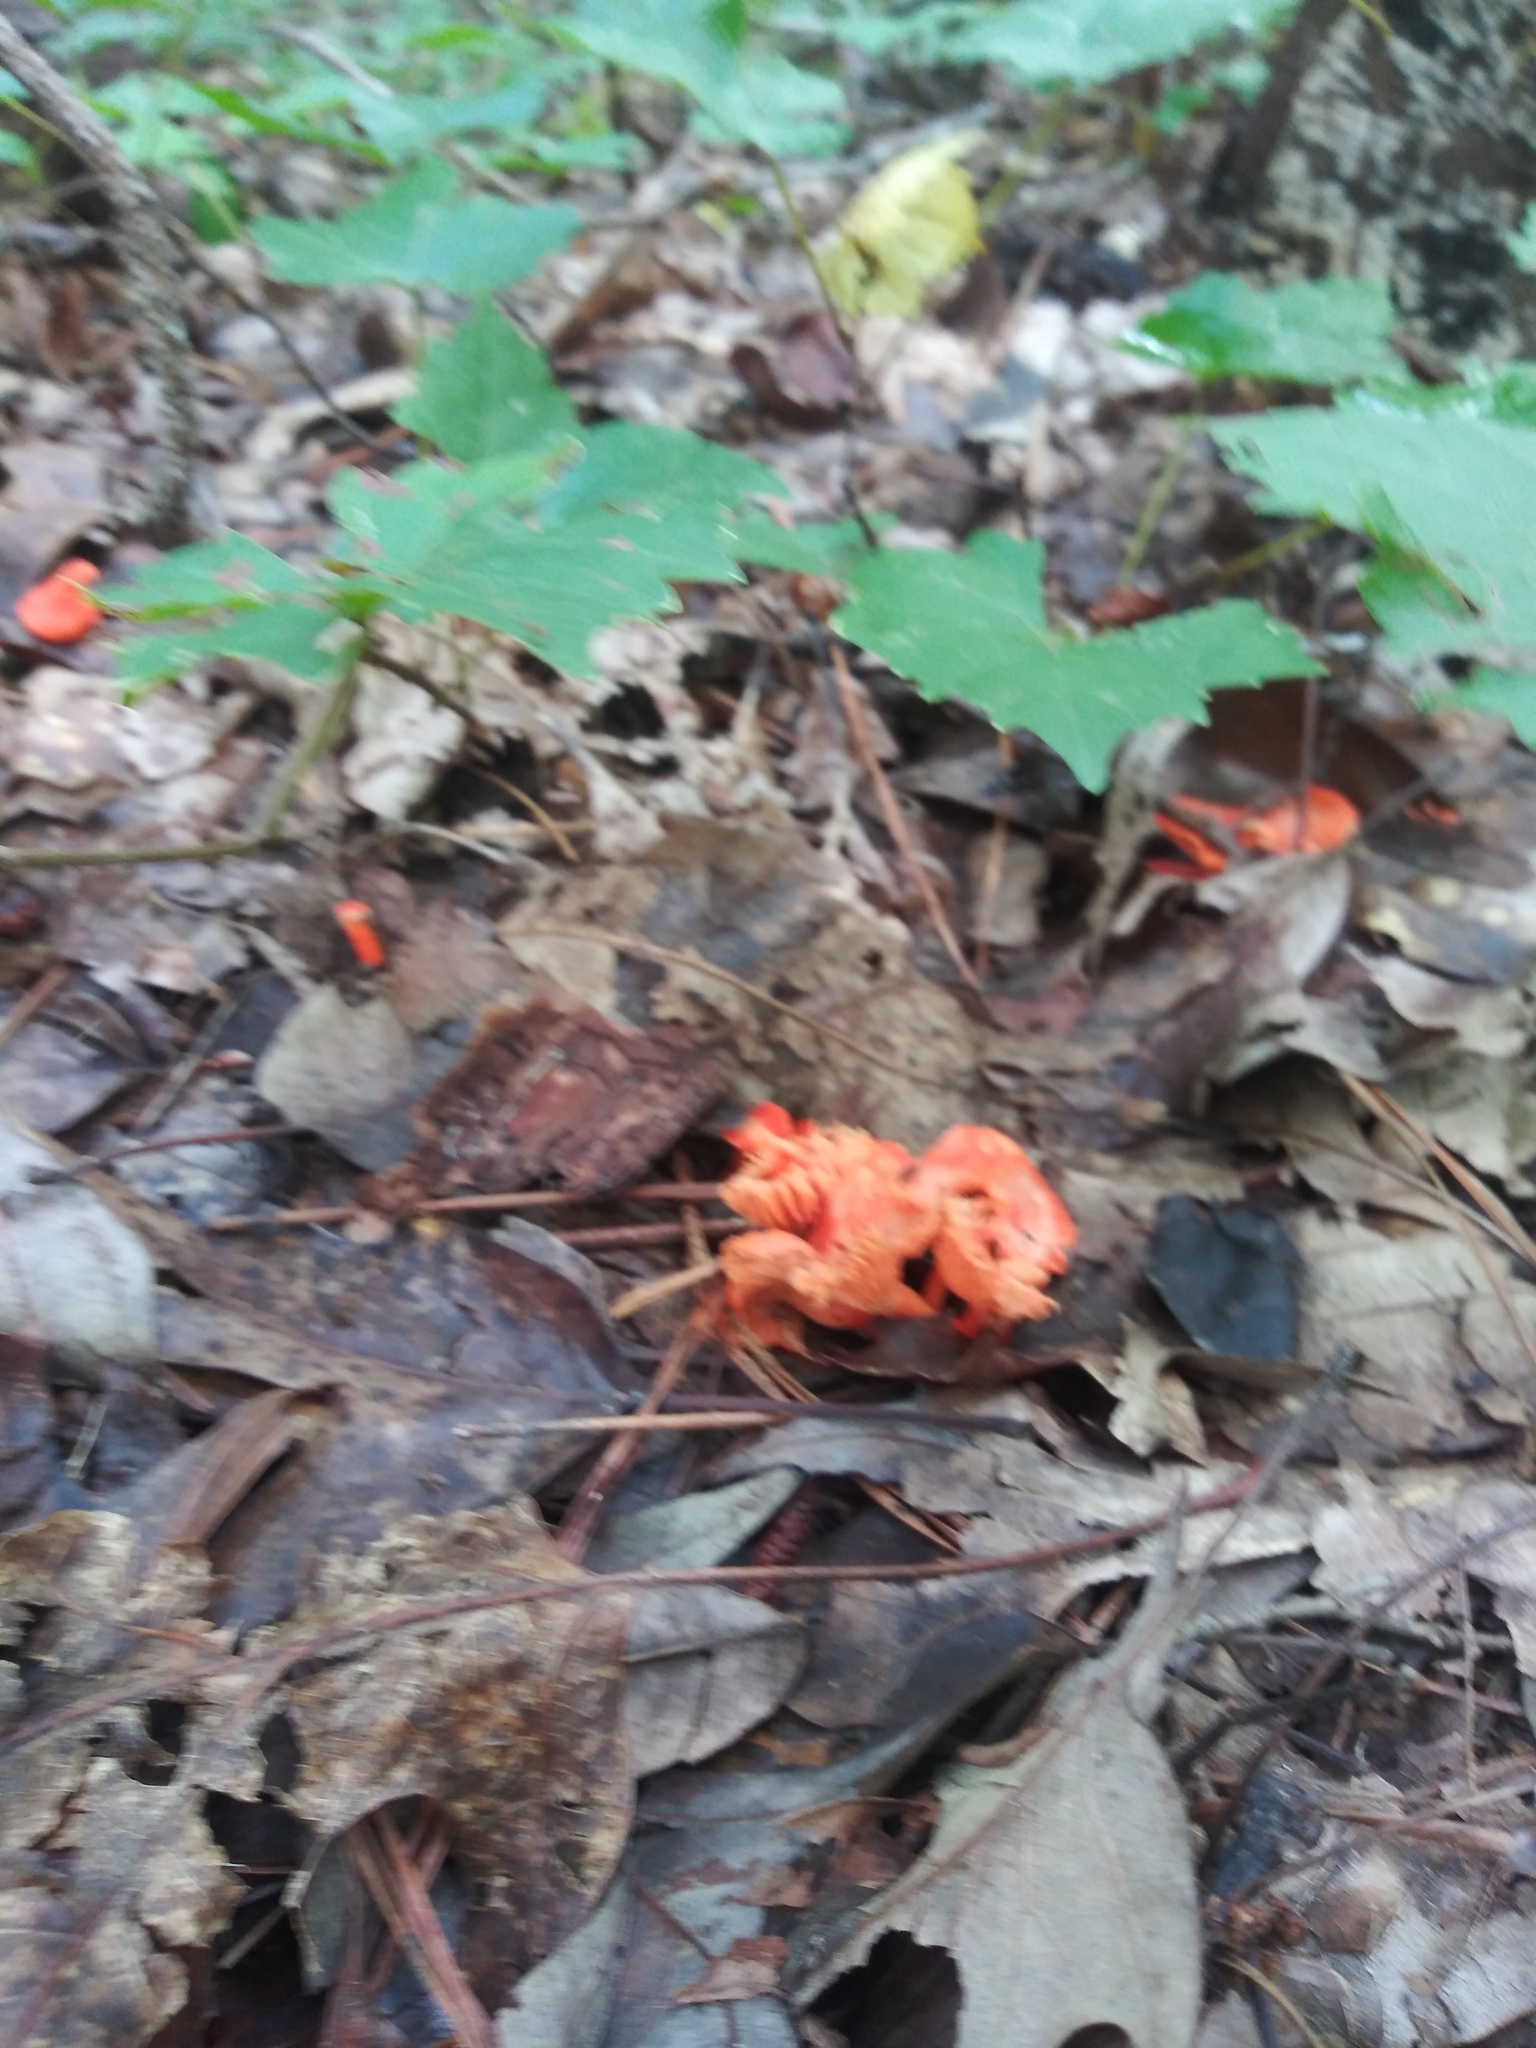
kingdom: Fungi
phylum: Basidiomycota
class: Agaricomycetes
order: Cantharellales
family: Hydnaceae
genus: Cantharellus
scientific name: Cantharellus cinnabarinus
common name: Cinnabar chanterelle
